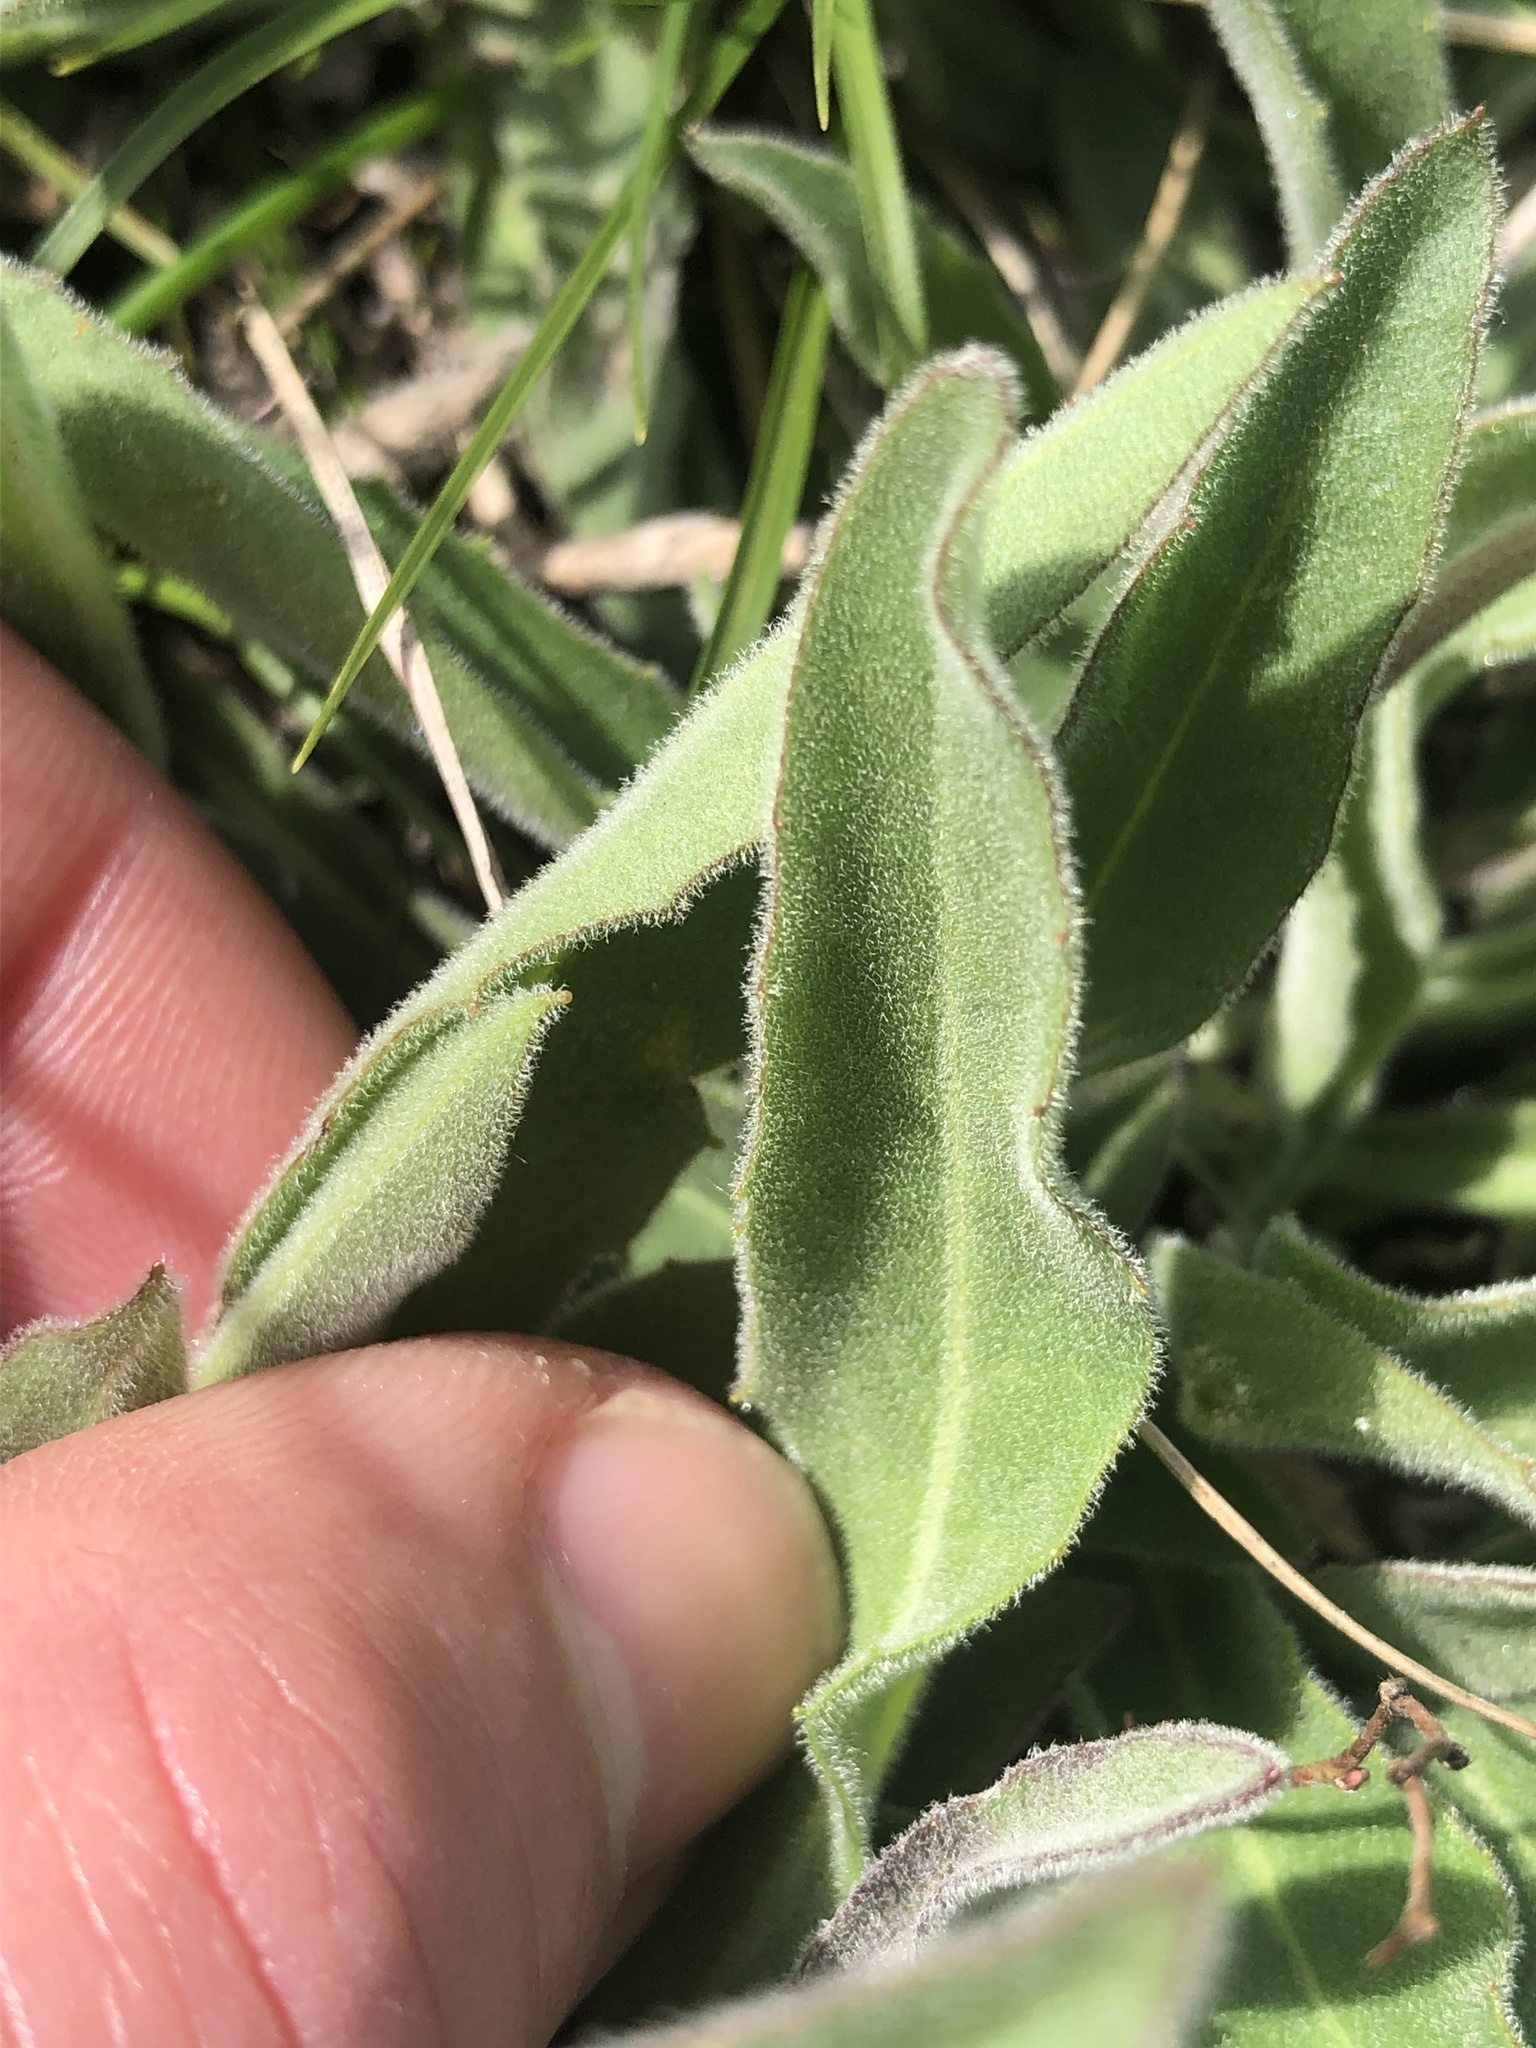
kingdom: Plantae
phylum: Tracheophyta
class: Magnoliopsida
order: Asterales
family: Asteraceae
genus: Leontodon
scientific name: Leontodon incanus
